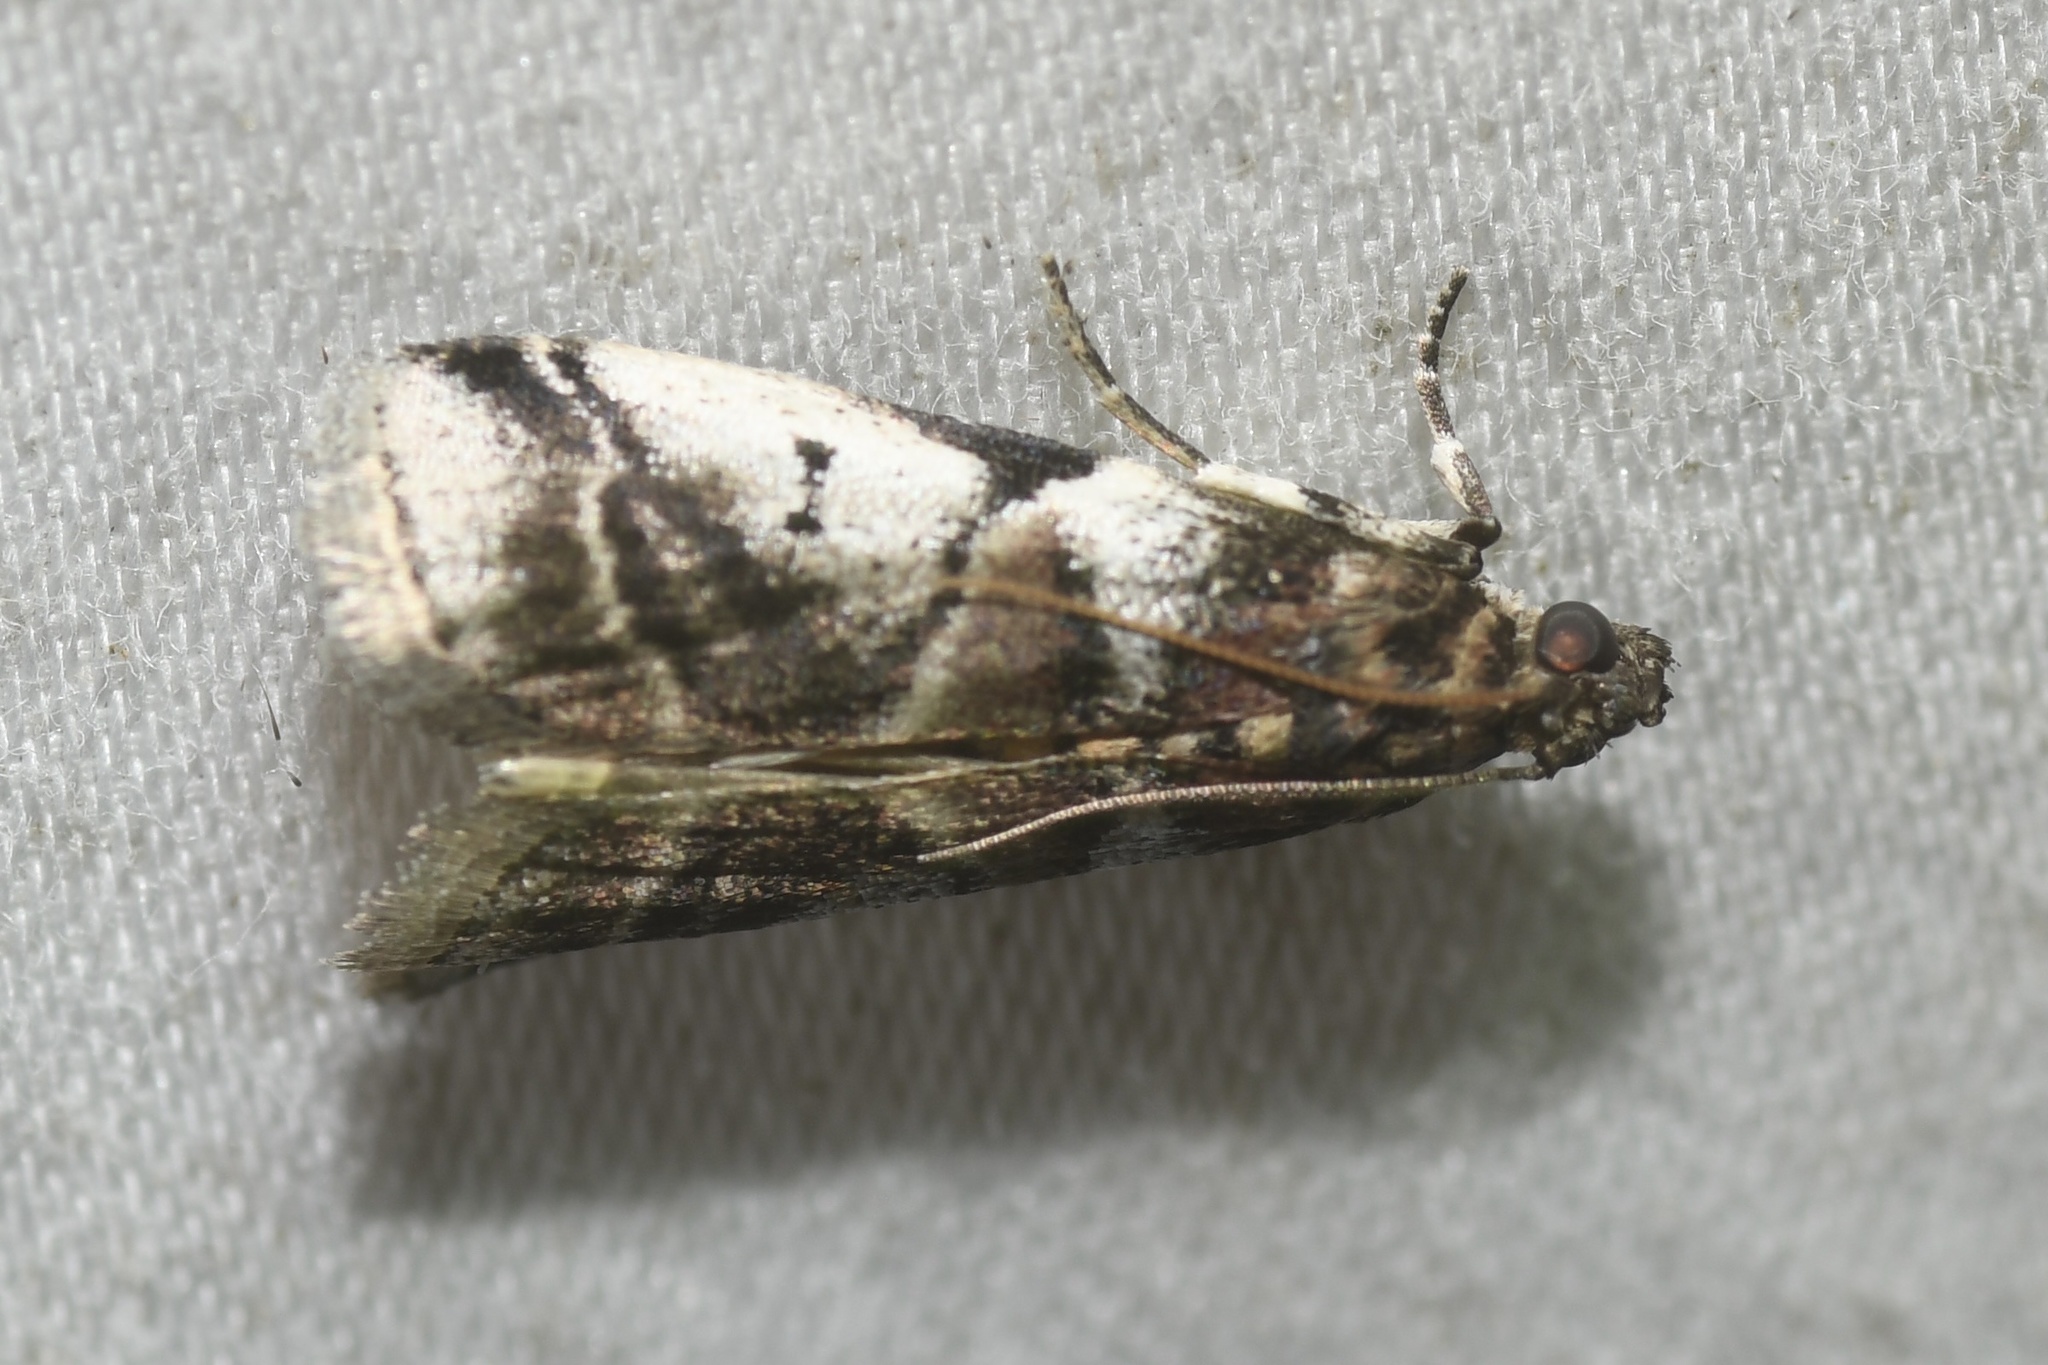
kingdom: Animalia
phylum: Arthropoda
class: Insecta
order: Lepidoptera
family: Pyralidae
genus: Acrobasis
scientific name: Acrobasis indigenella
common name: Leaf crumpler moth
